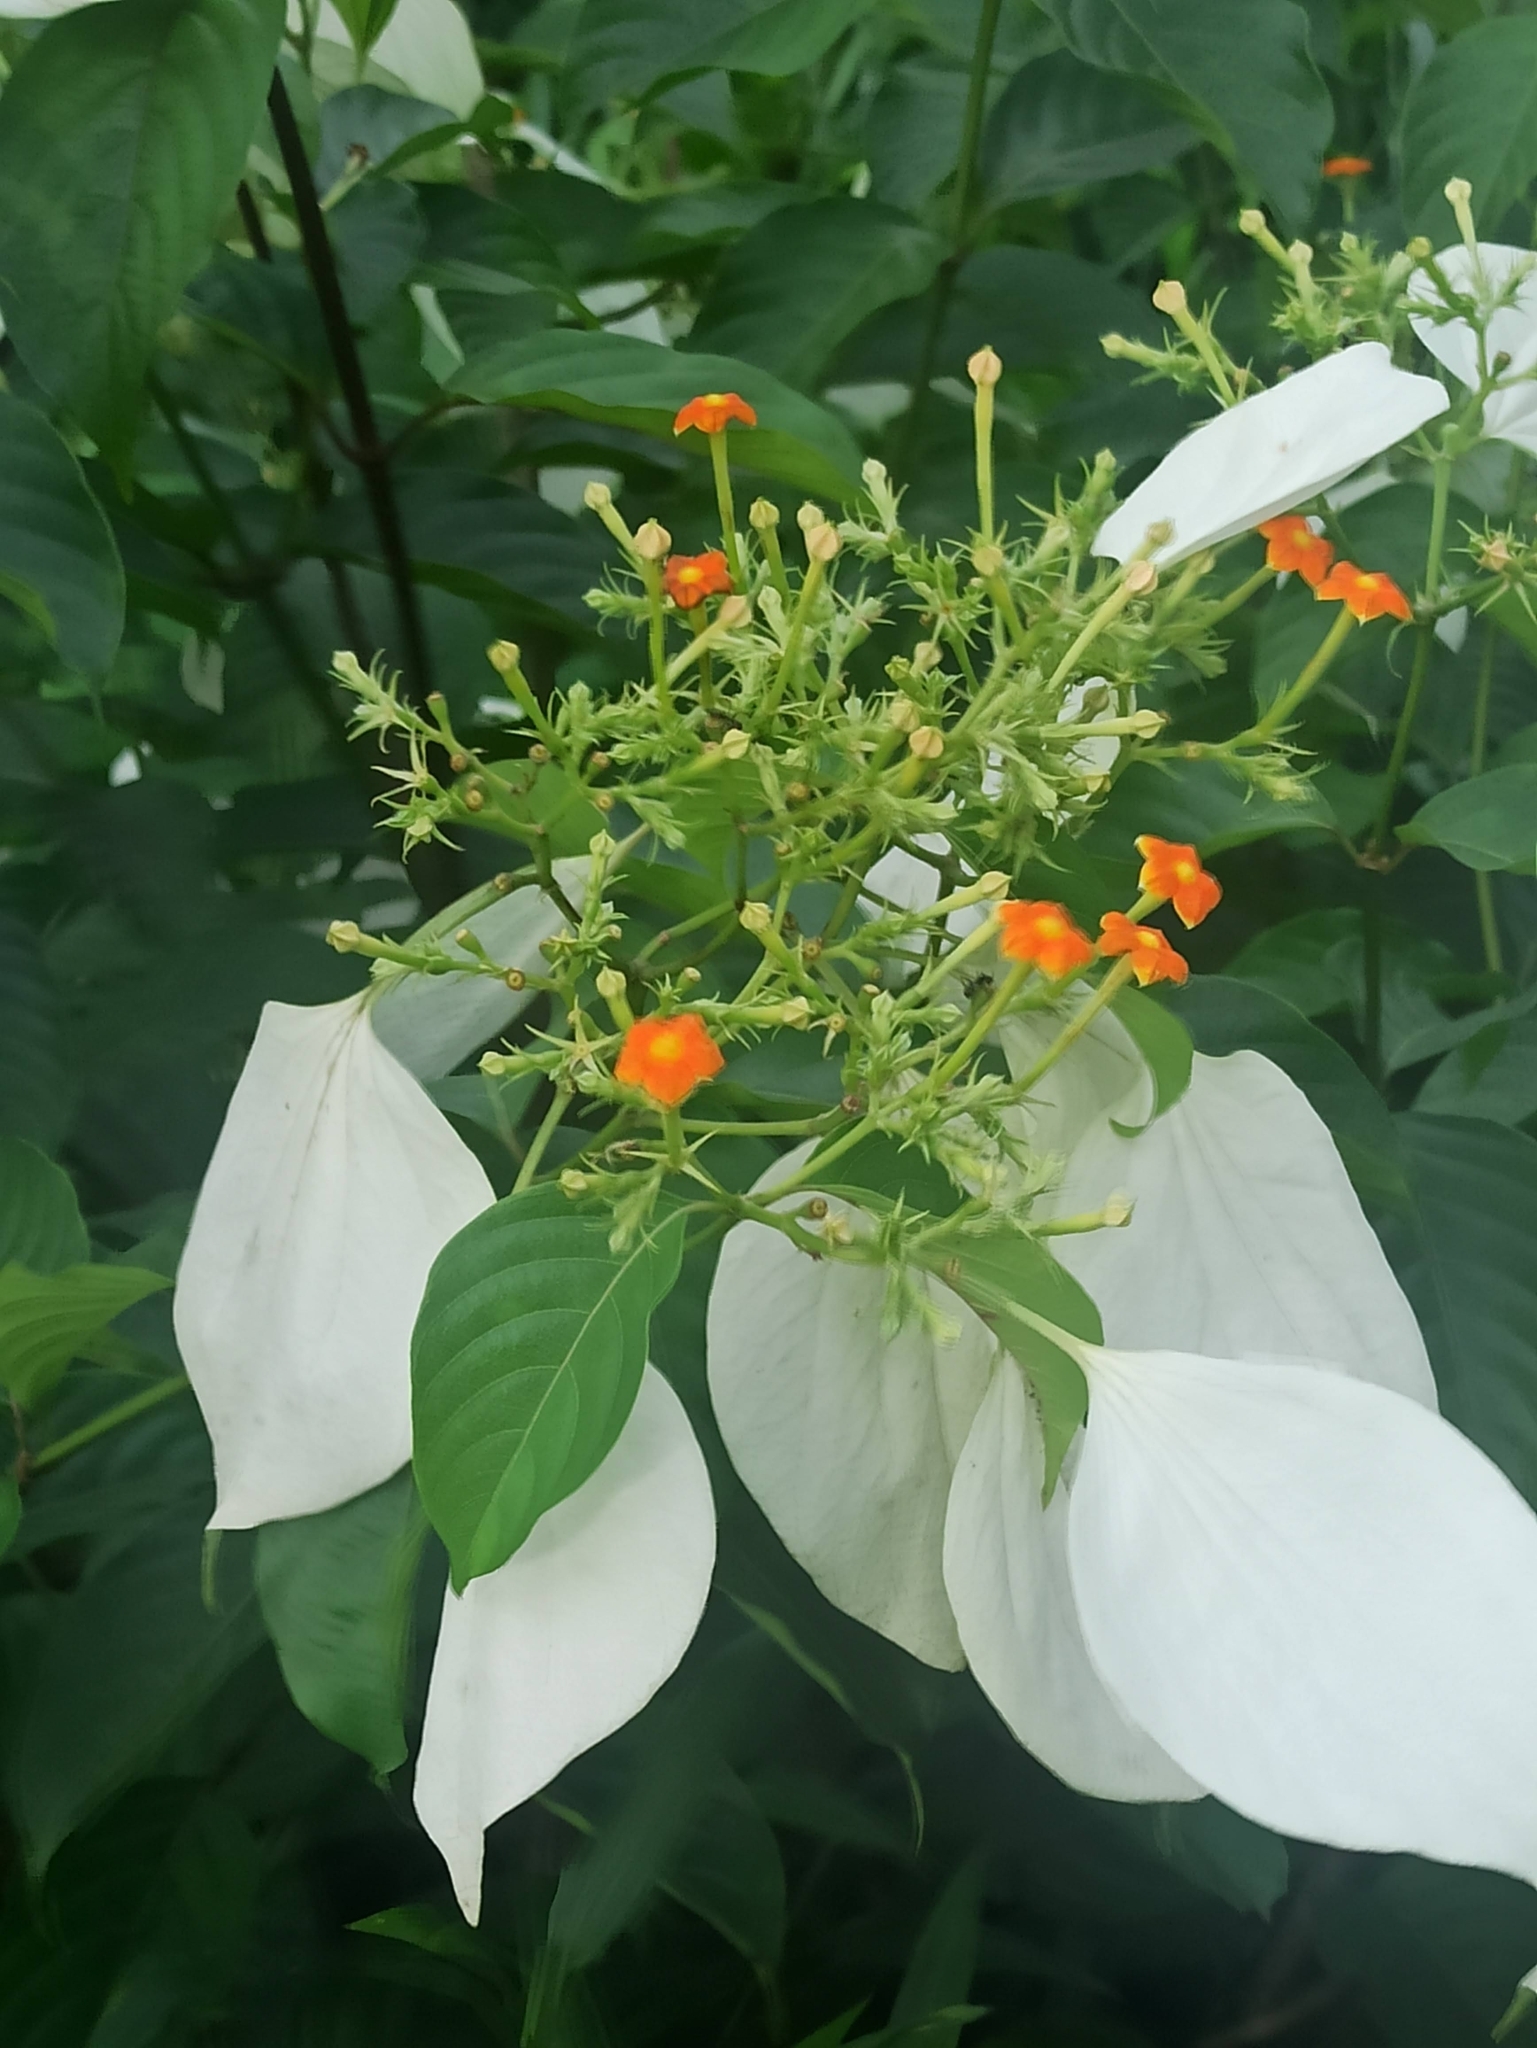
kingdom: Plantae
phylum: Tracheophyta
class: Magnoliopsida
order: Gentianales
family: Rubiaceae
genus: Mussaenda
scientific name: Mussaenda frondosa
